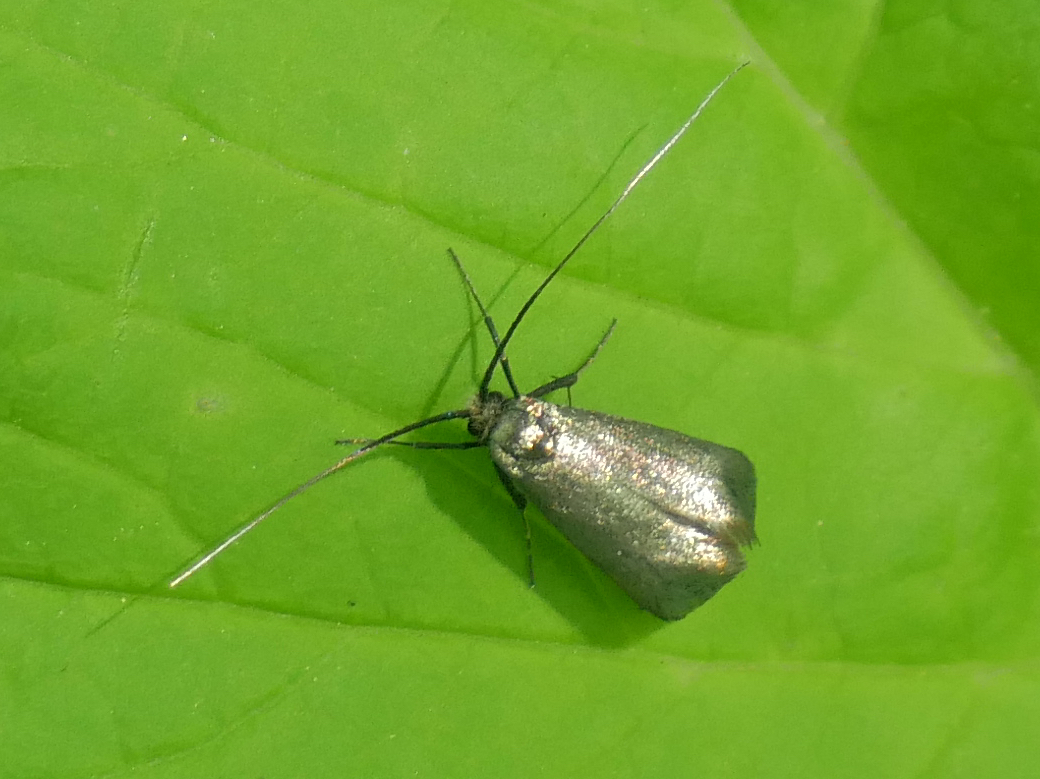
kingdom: Animalia
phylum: Arthropoda
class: Insecta
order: Lepidoptera
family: Adelidae
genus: Adela
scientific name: Adela viridella
